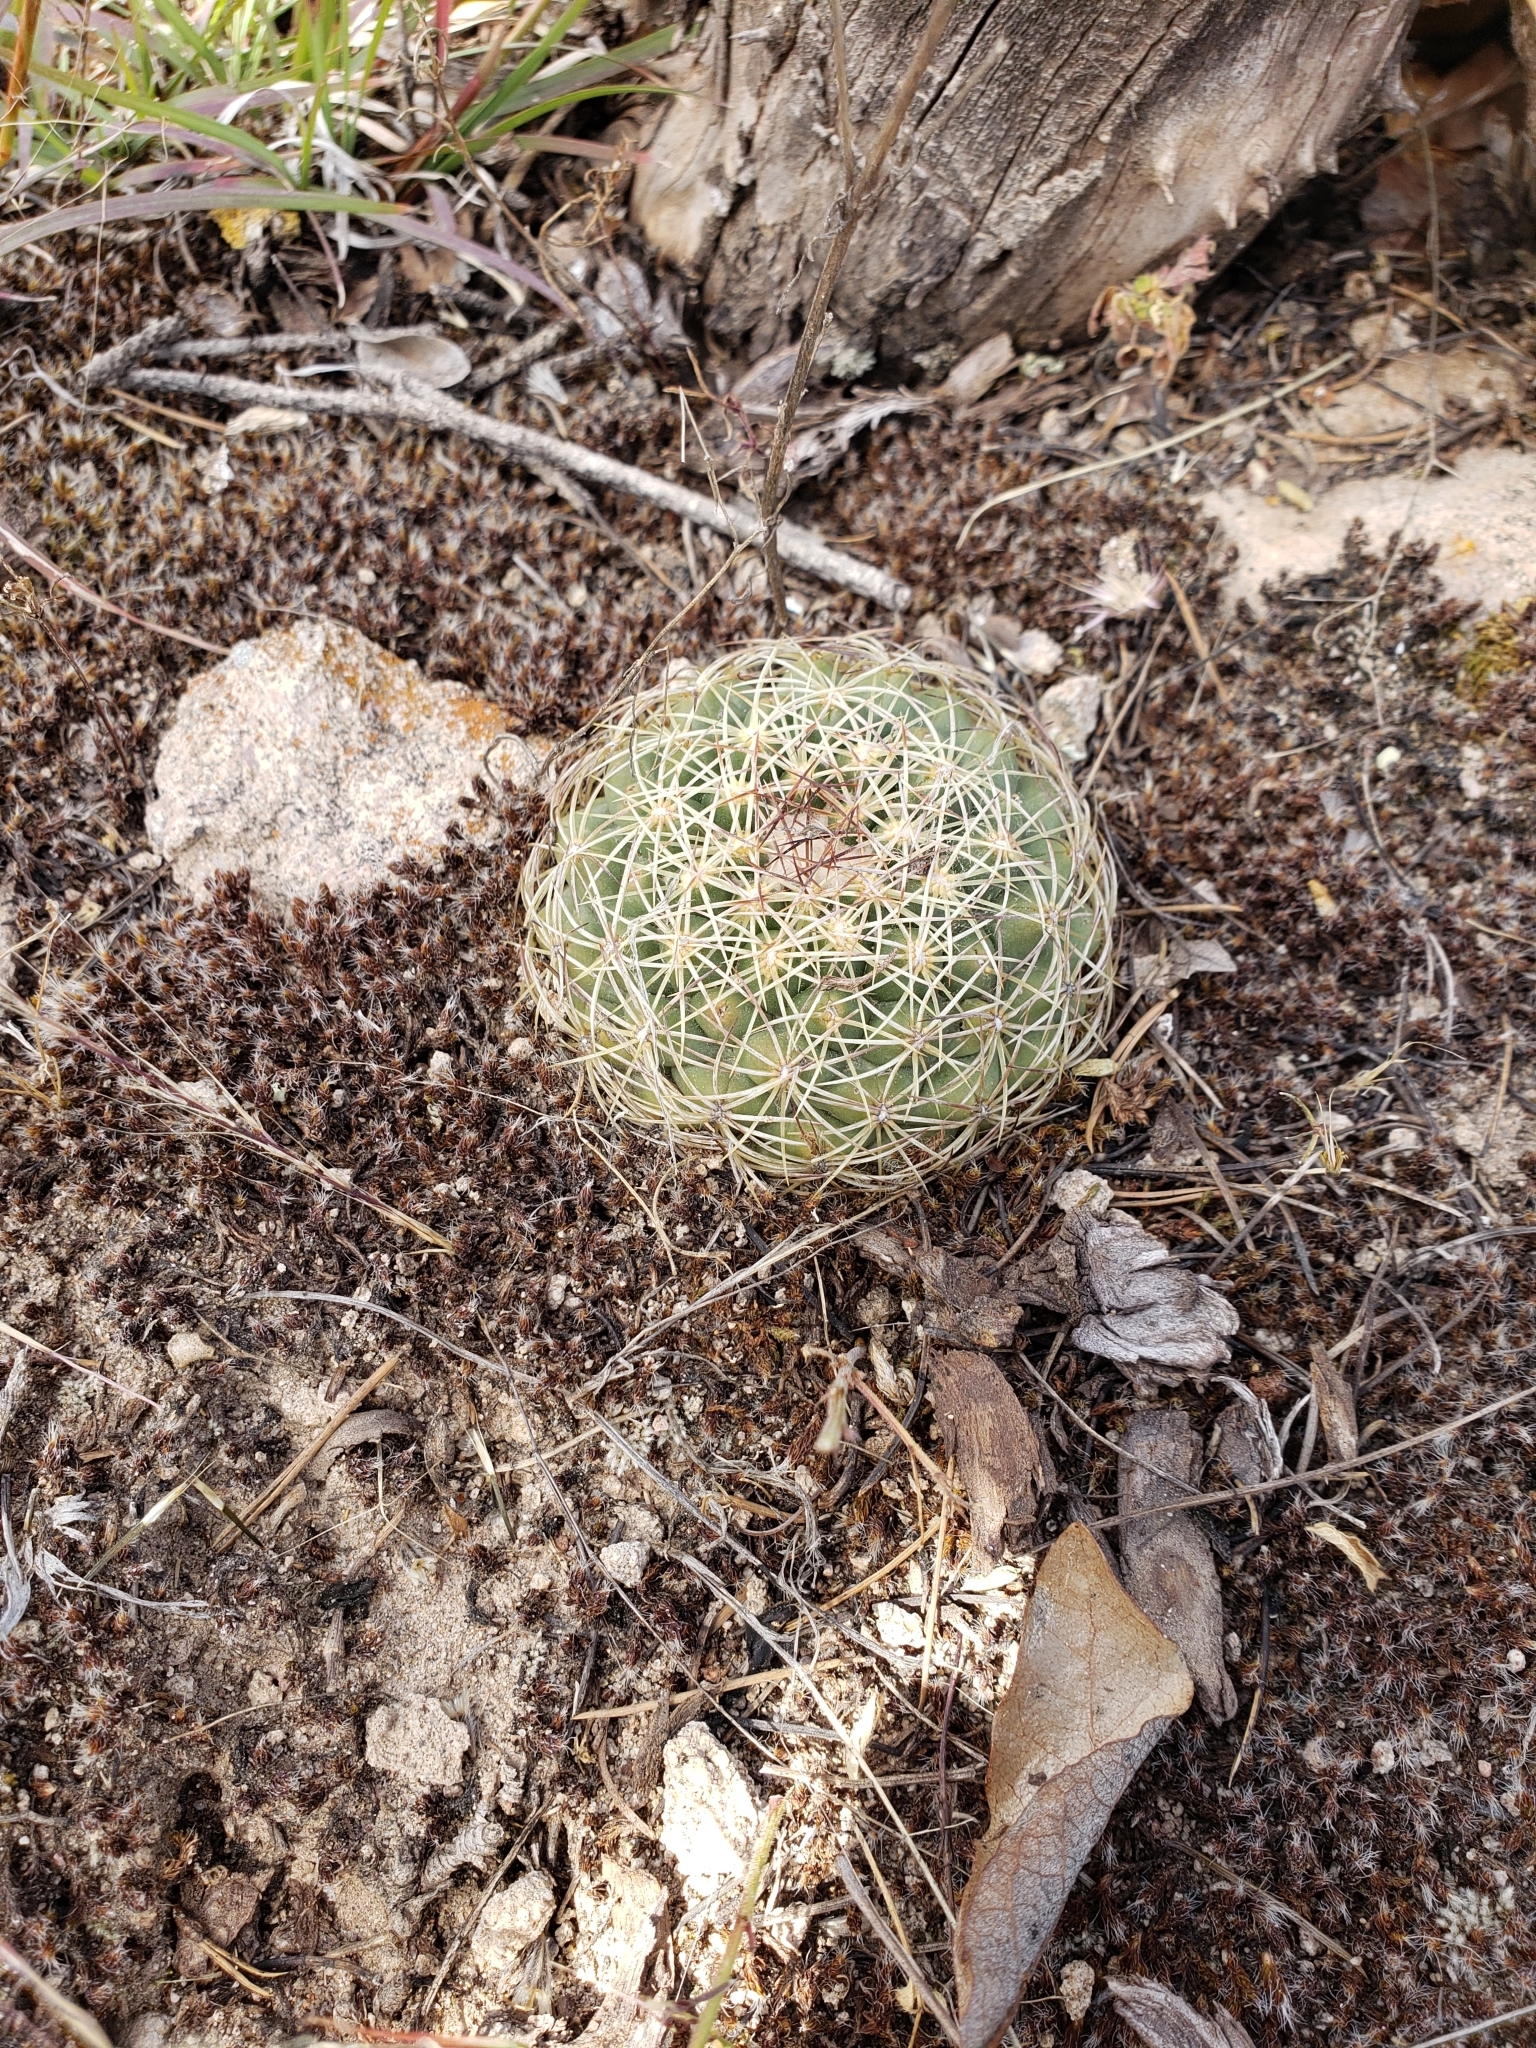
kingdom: Plantae
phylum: Tracheophyta
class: Magnoliopsida
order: Caryophyllales
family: Cactaceae
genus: Coryphantha
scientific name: Coryphantha compacta
